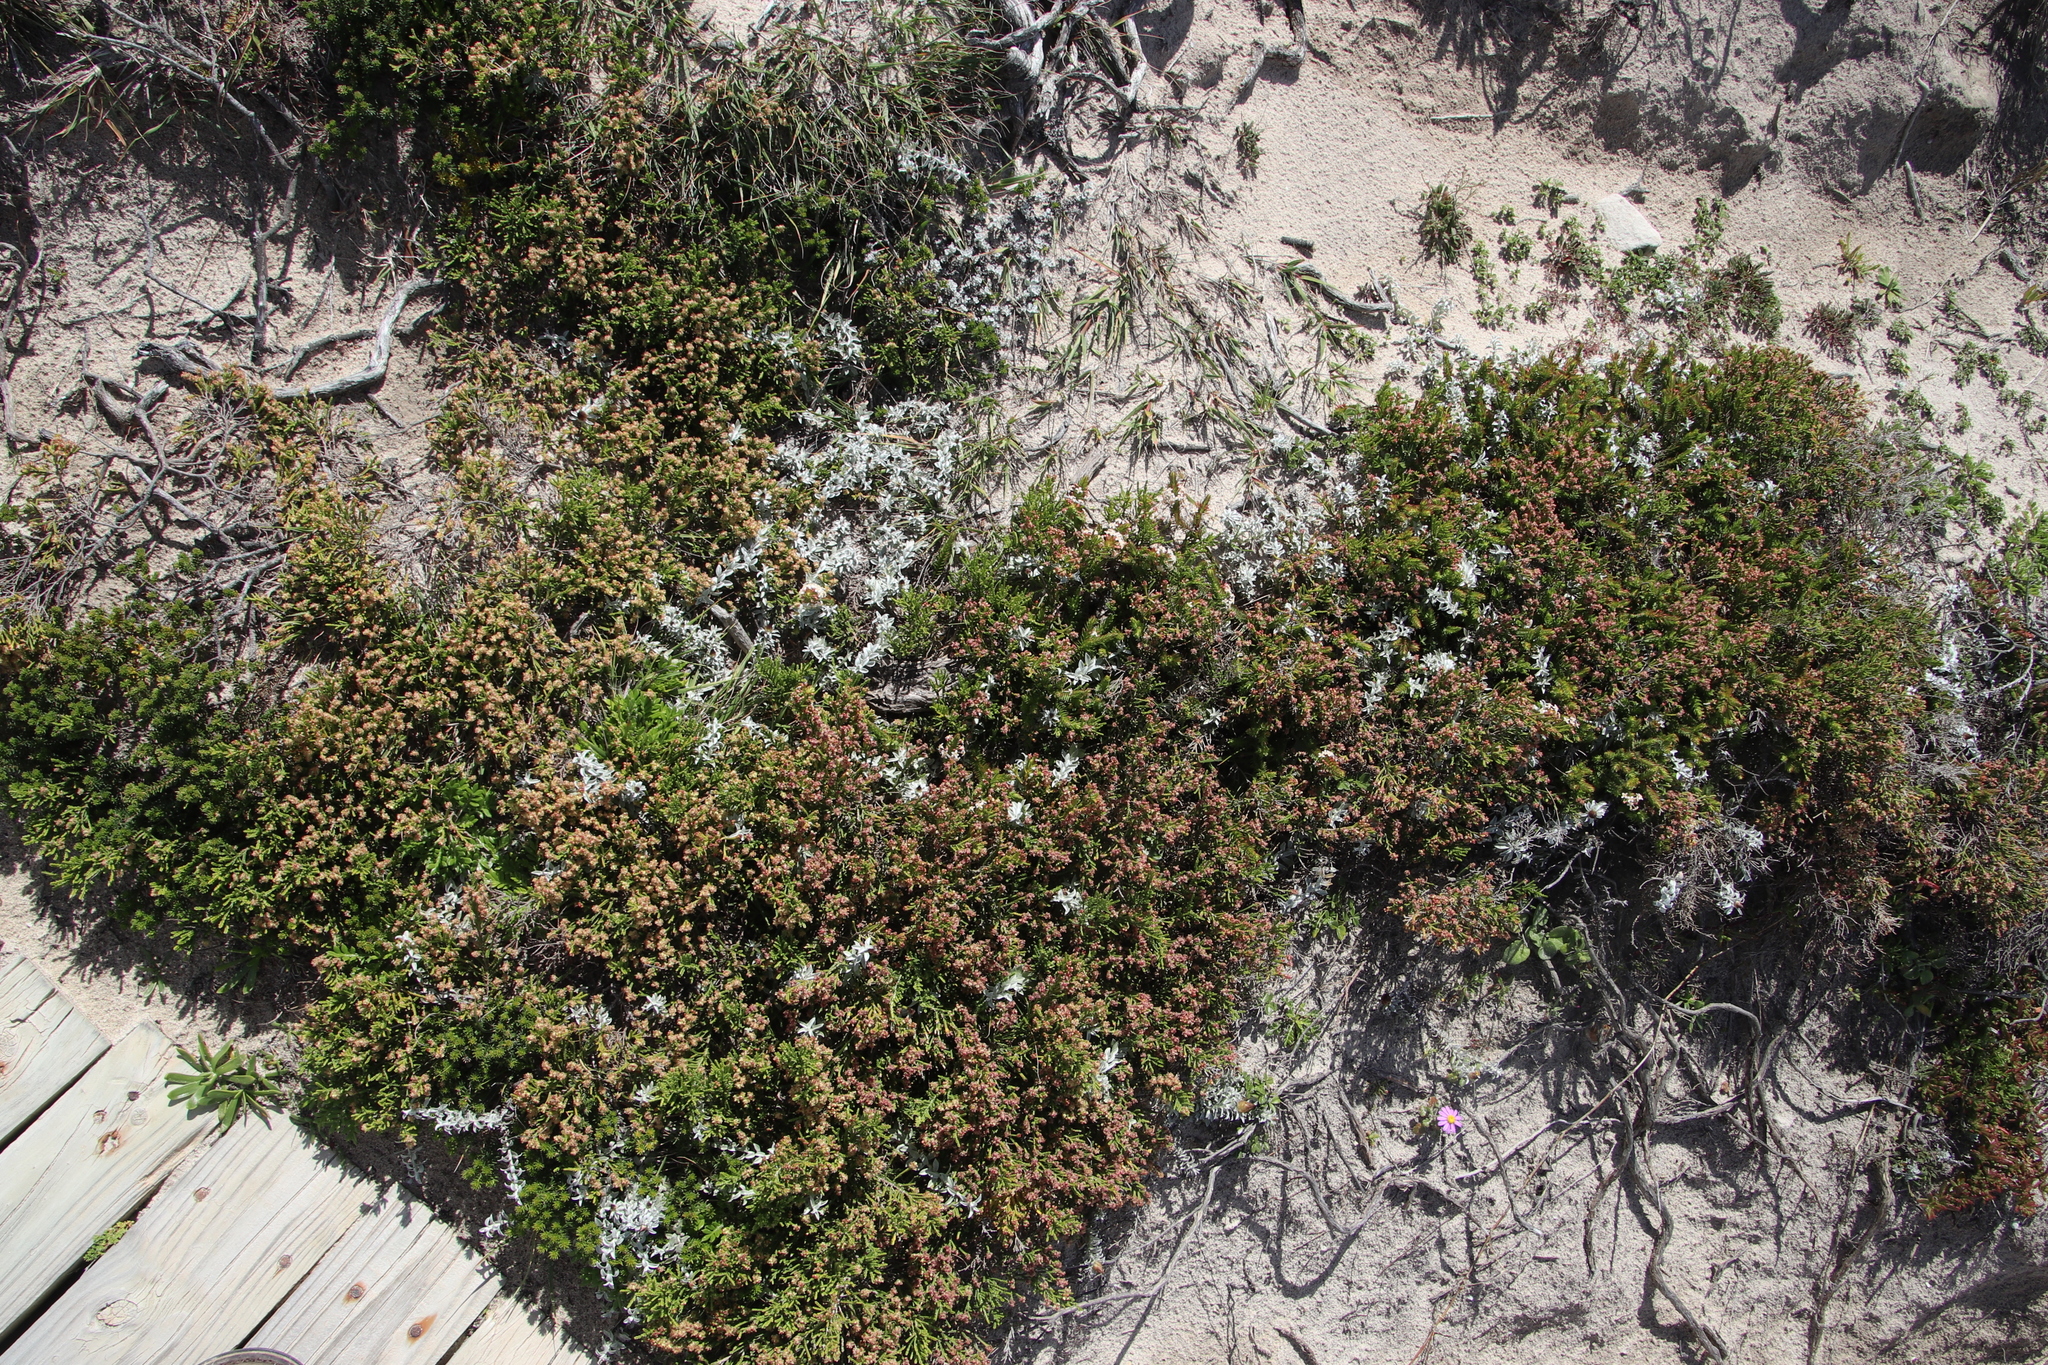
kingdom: Plantae
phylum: Tracheophyta
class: Magnoliopsida
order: Malvales
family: Thymelaeaceae
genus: Passerina
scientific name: Passerina paleacea
